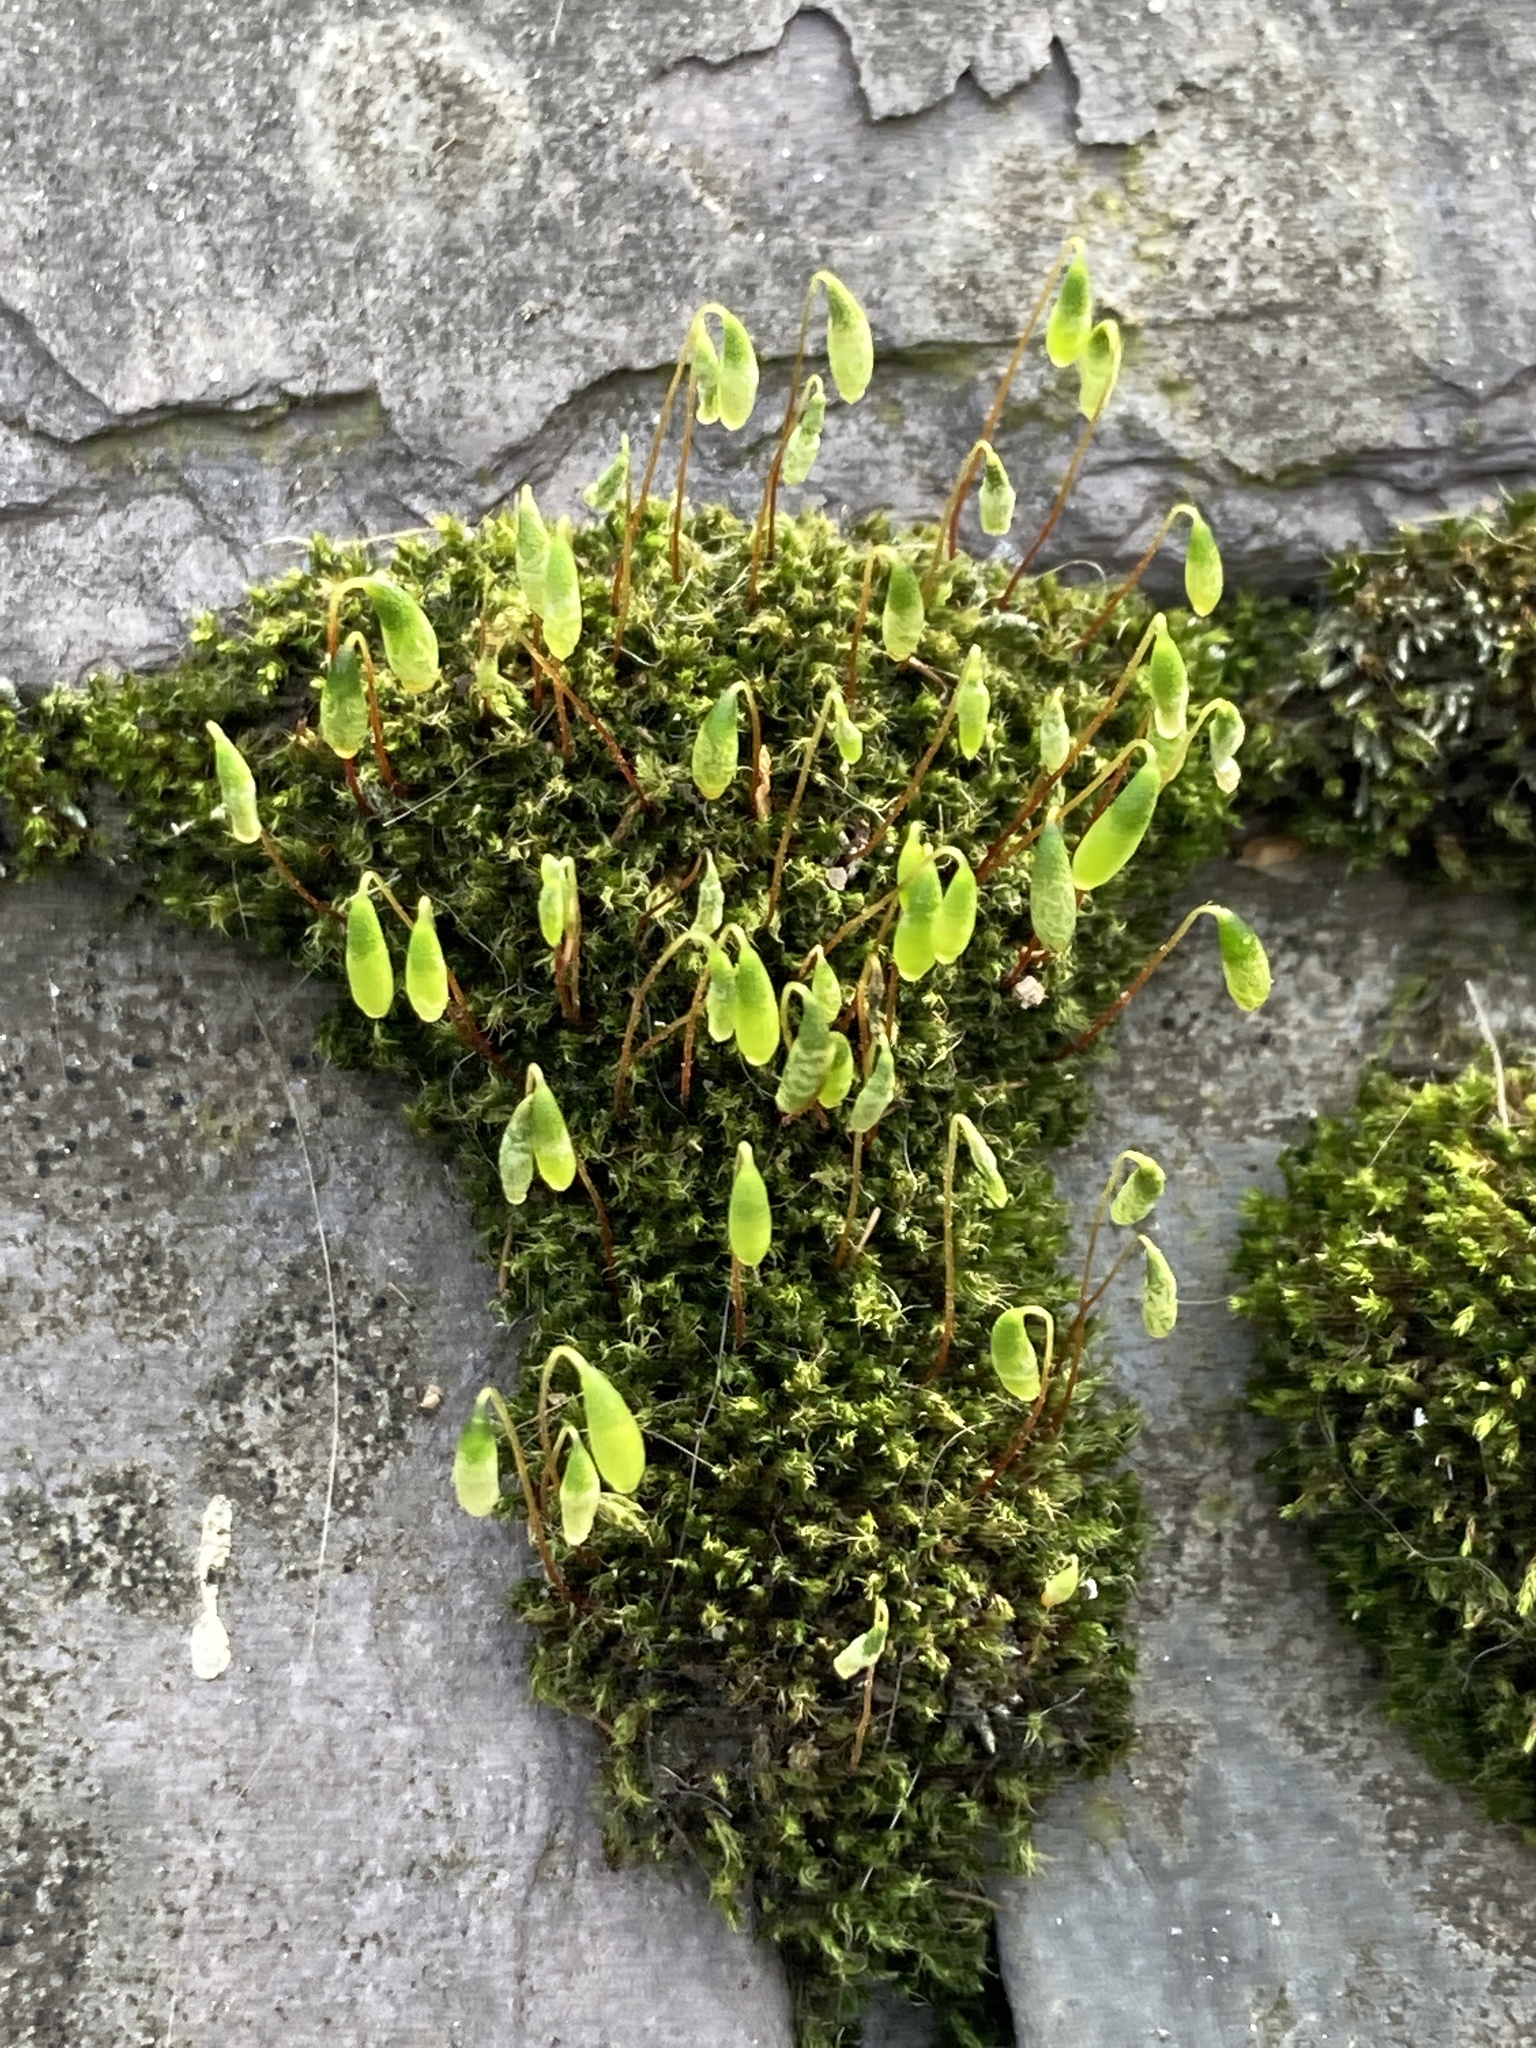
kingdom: Plantae
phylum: Bryophyta
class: Bryopsida
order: Bryales
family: Bryaceae
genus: Rosulabryum
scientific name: Rosulabryum capillare
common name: Capillary thread-moss
